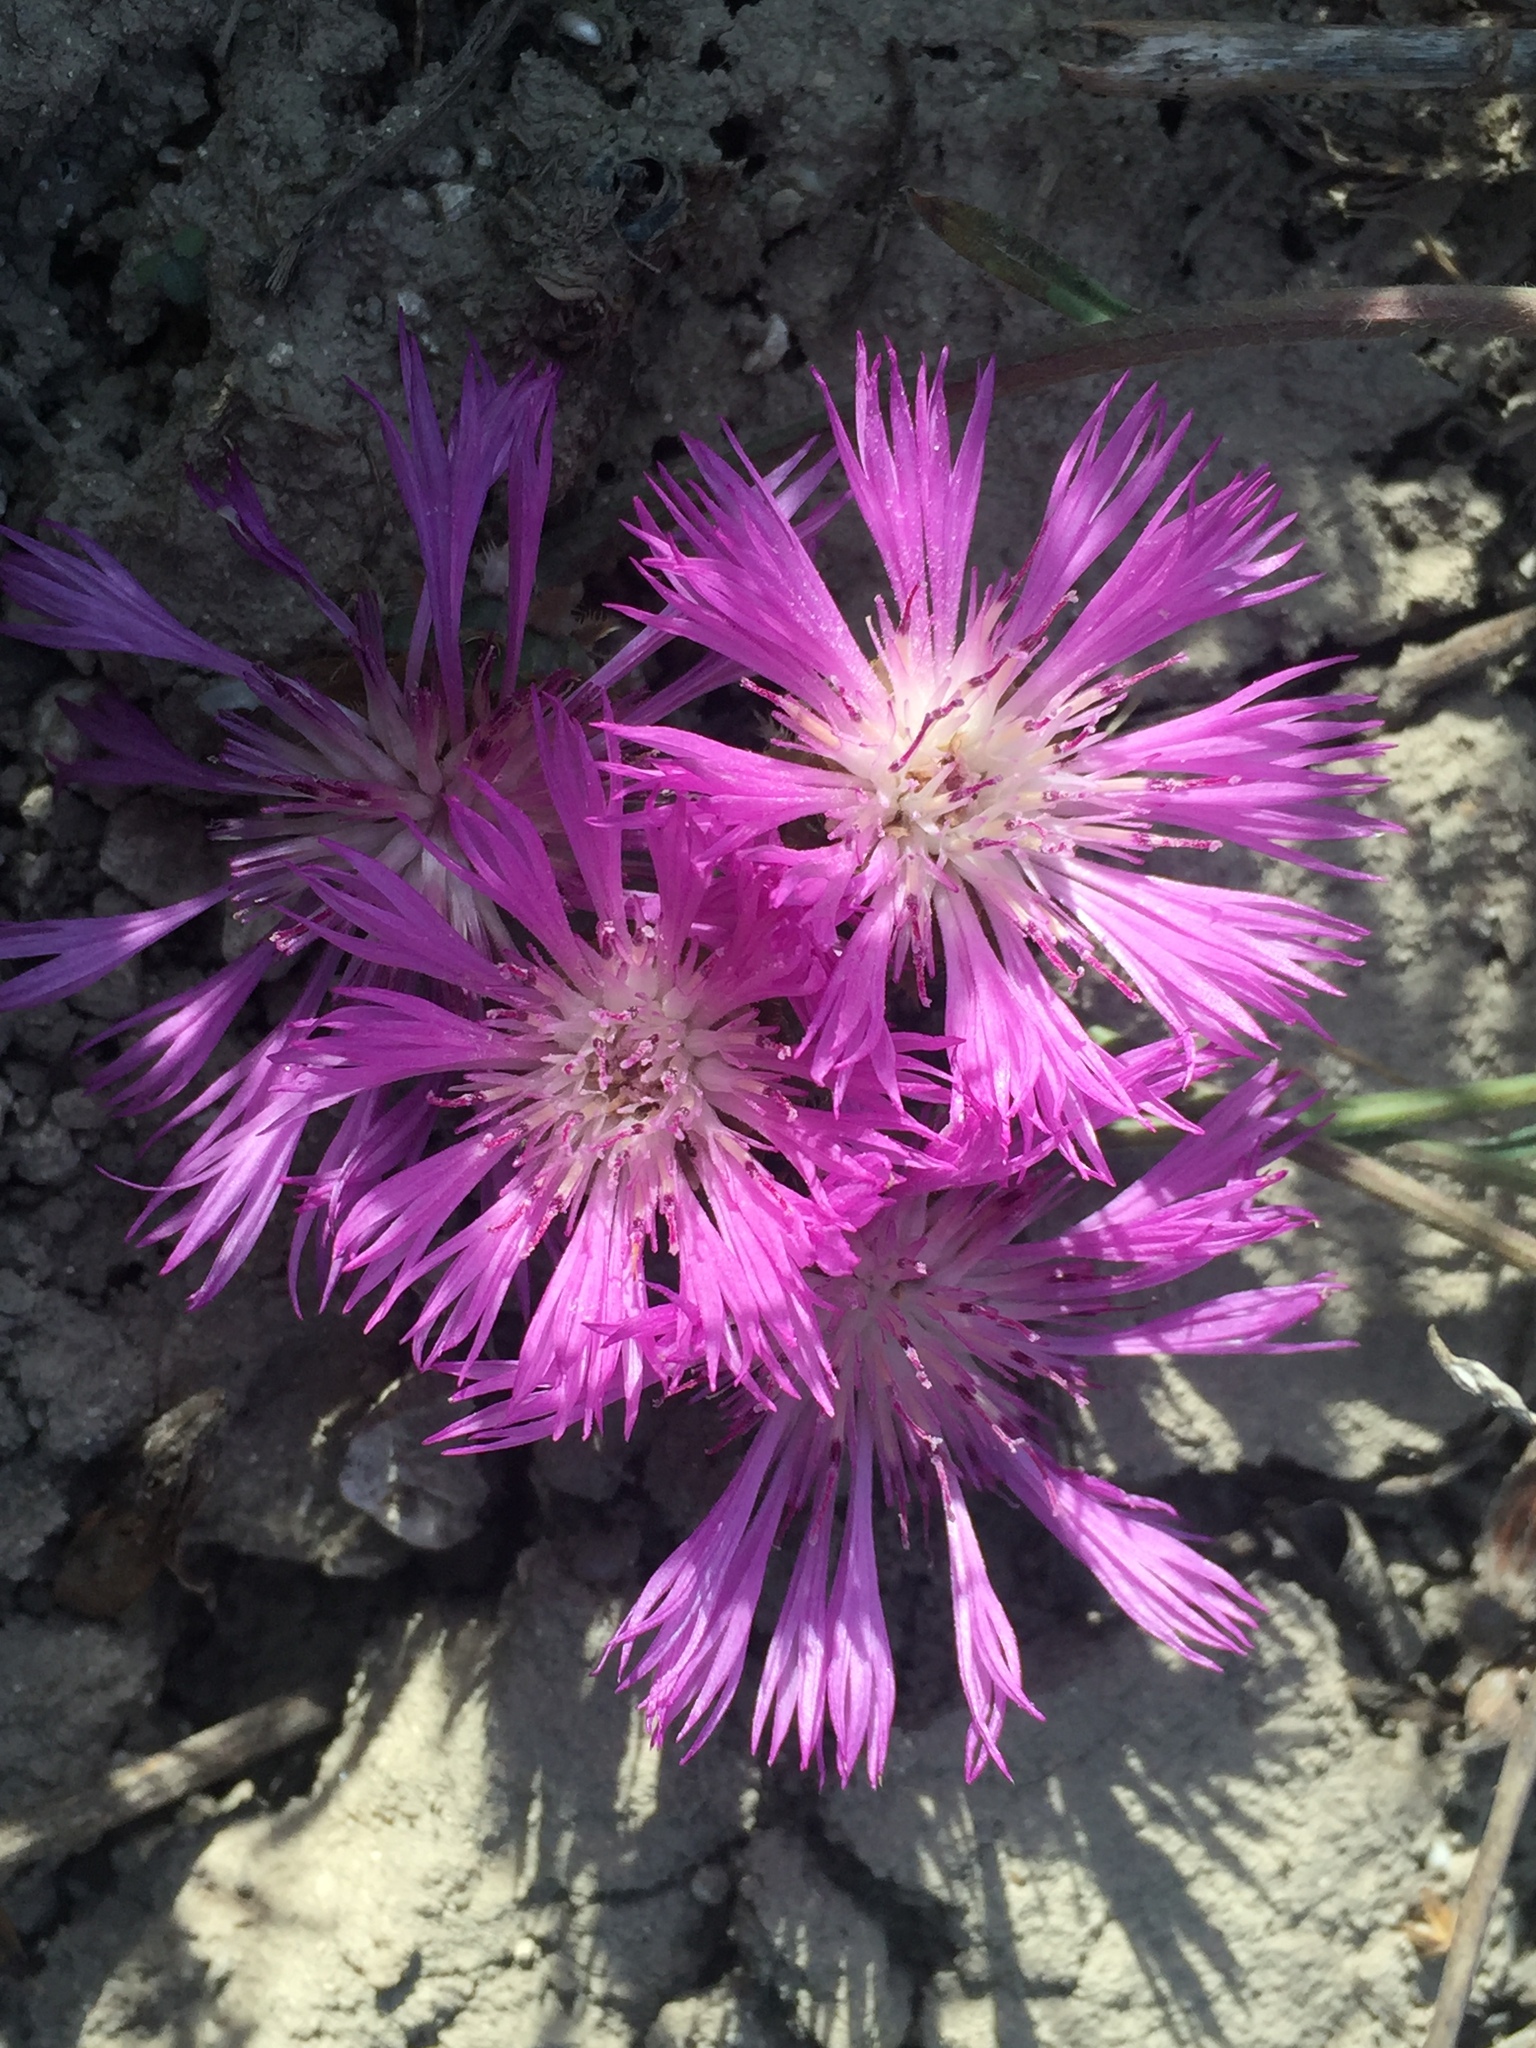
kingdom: Plantae
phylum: Tracheophyta
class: Magnoliopsida
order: Asterales
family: Asteraceae
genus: Psephellus
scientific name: Psephellus marschallianus
